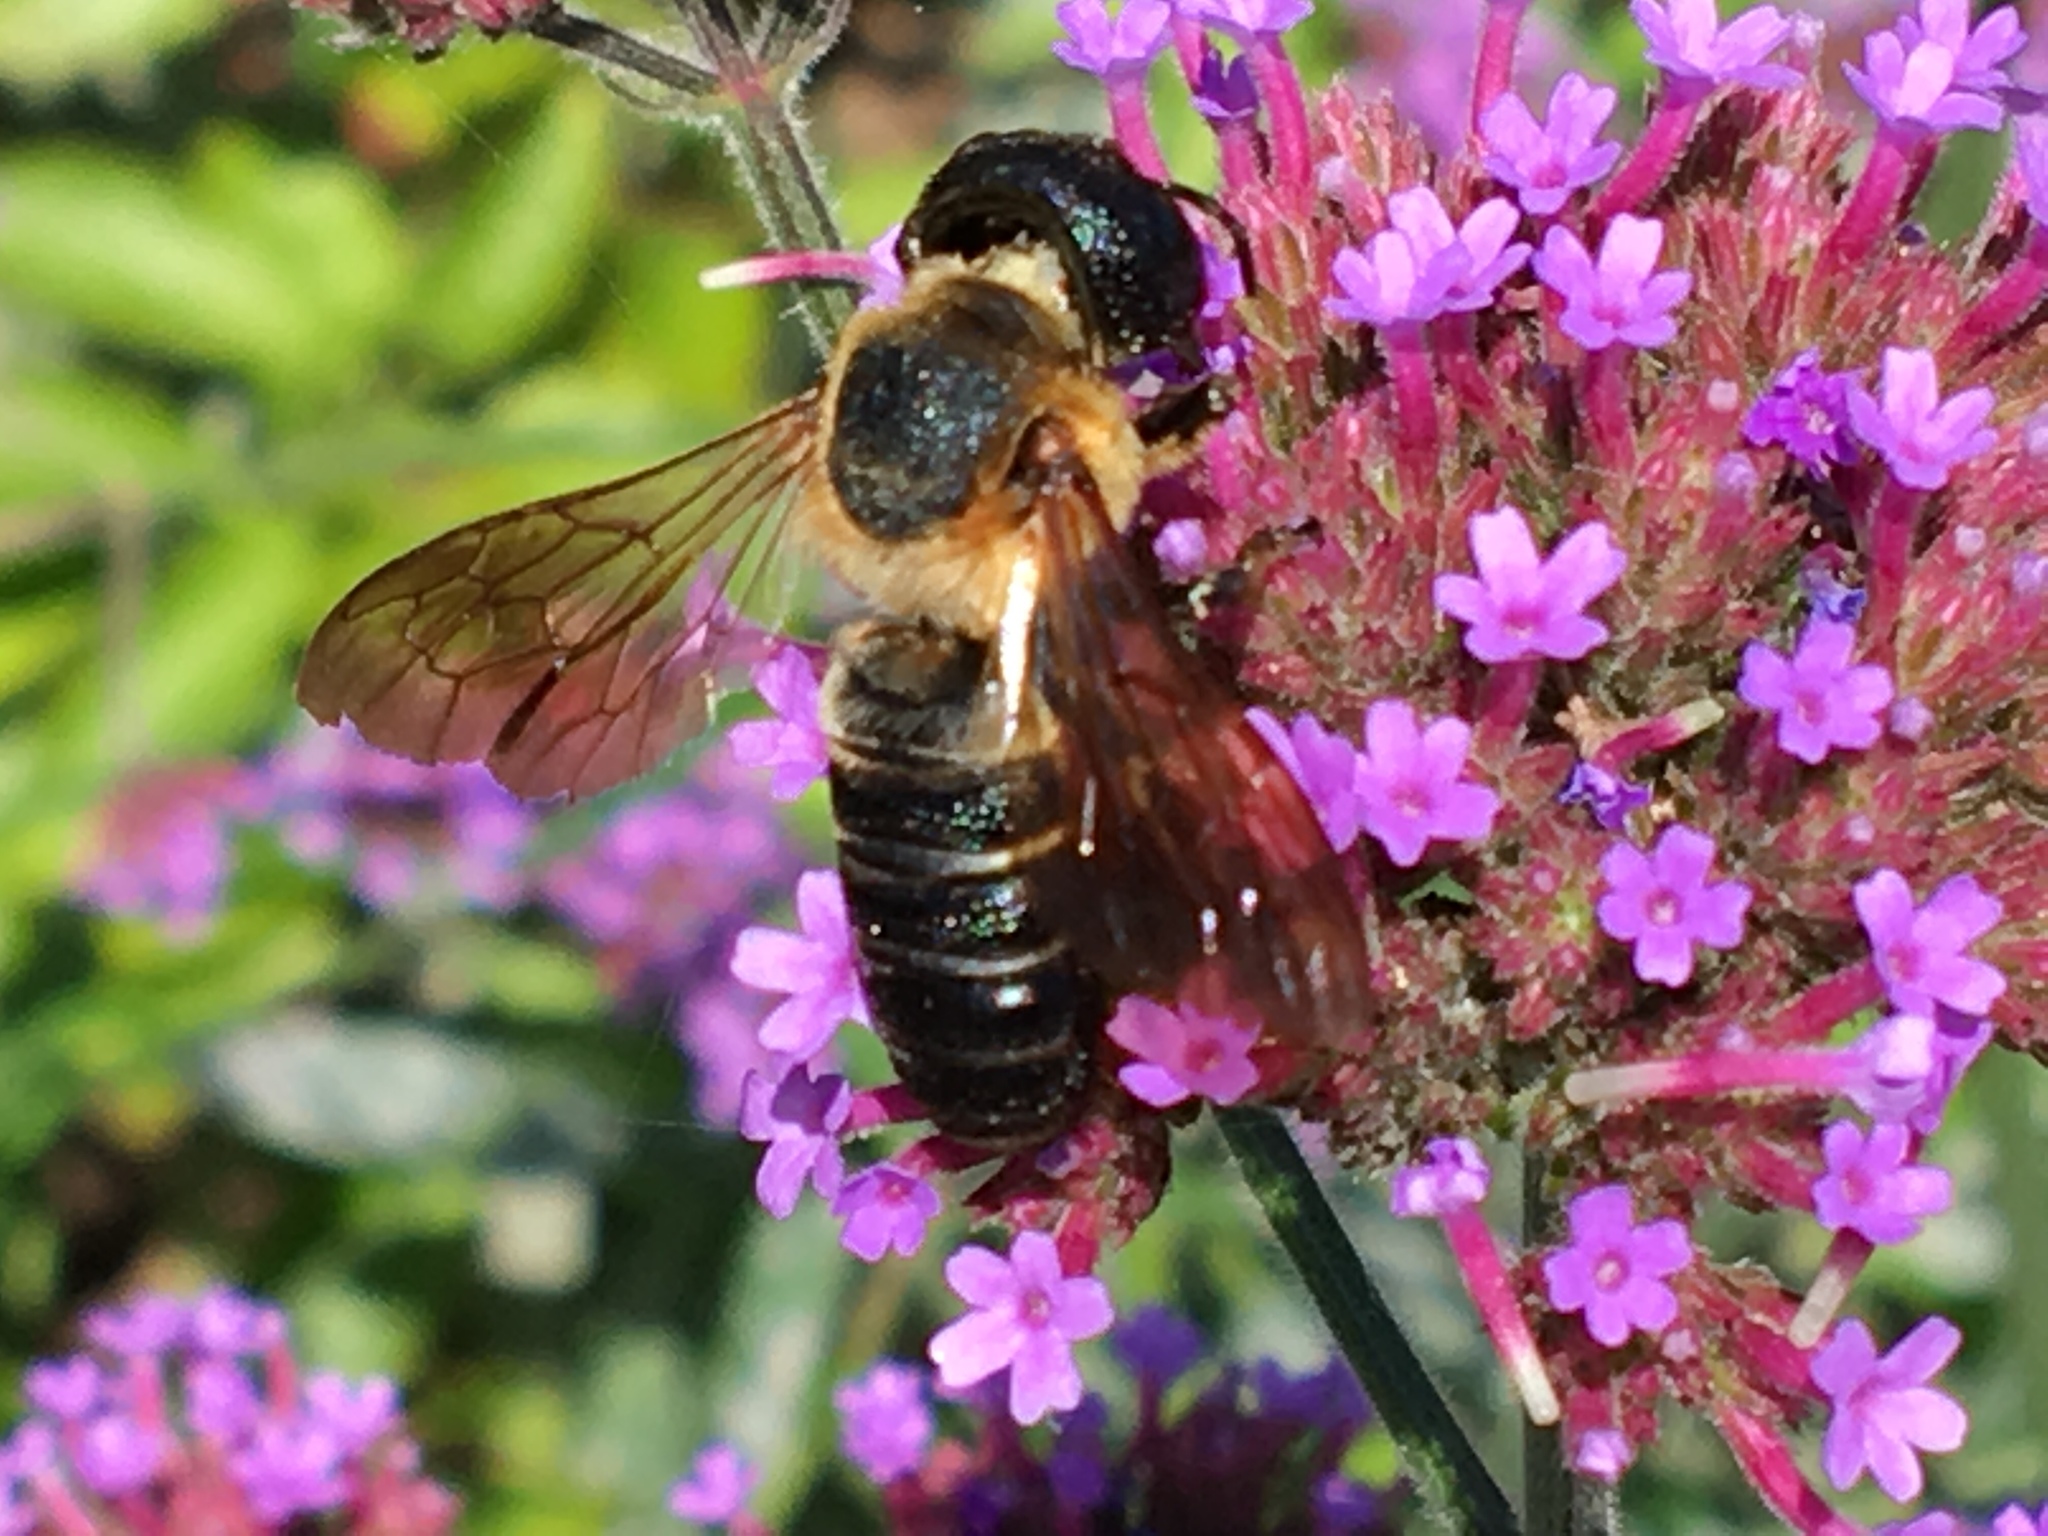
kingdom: Animalia
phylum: Arthropoda
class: Insecta
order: Hymenoptera
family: Megachilidae
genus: Megachile
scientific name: Megachile sculpturalis
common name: Sculptured resin bee
